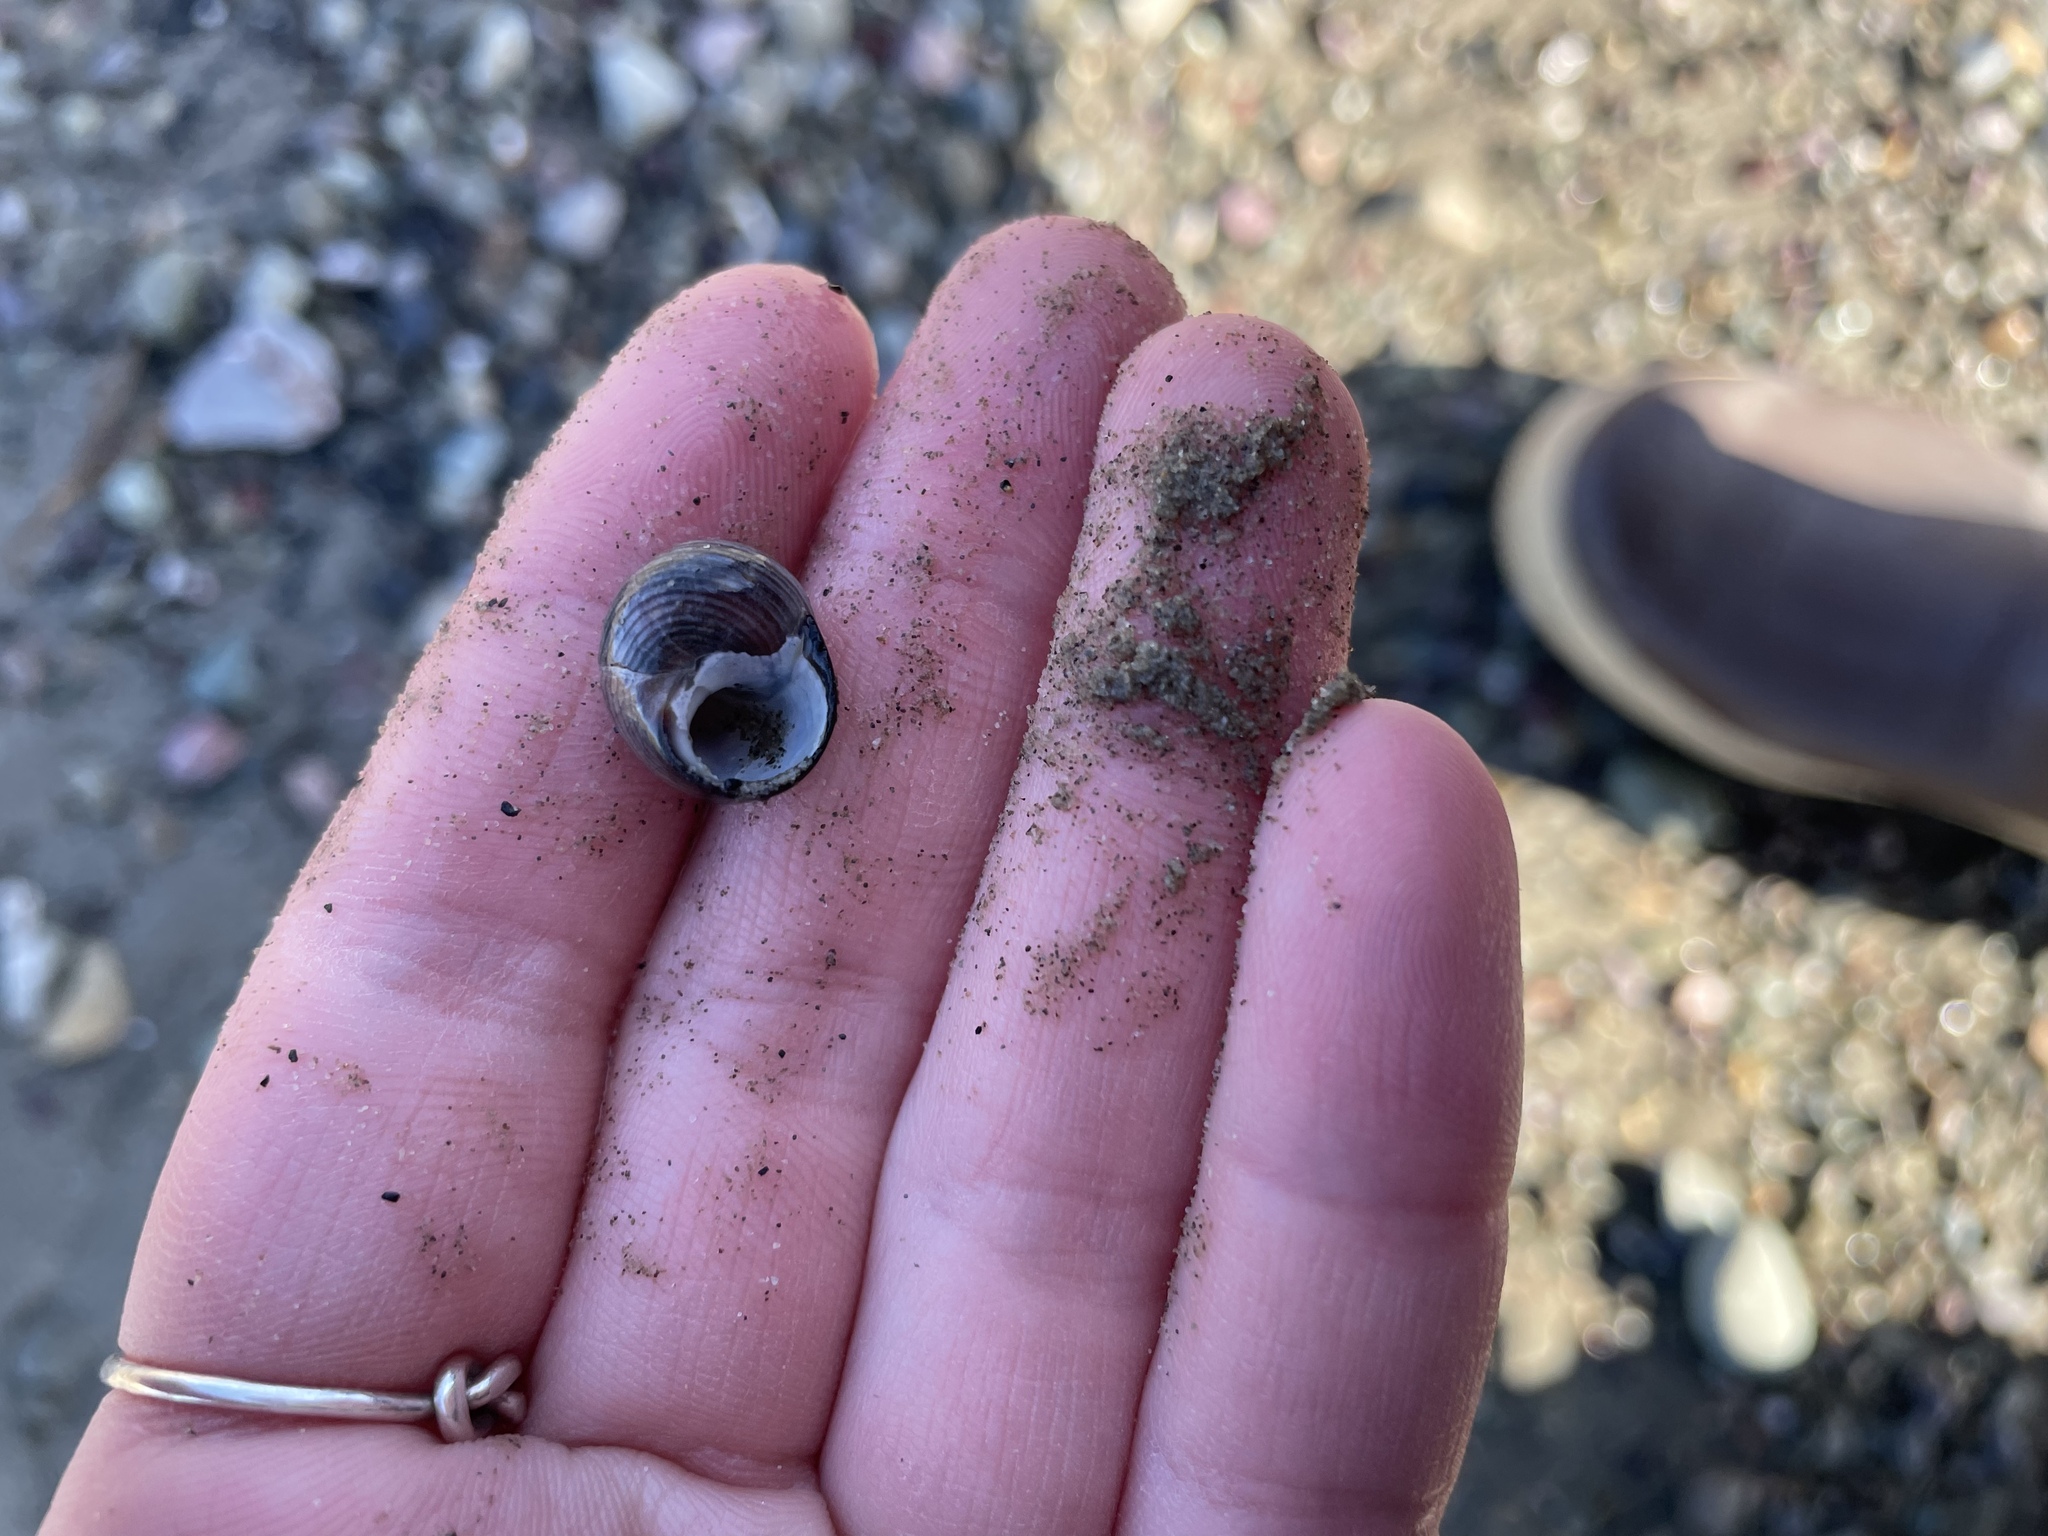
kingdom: Animalia
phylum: Mollusca
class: Gastropoda
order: Littorinimorpha
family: Littorinidae
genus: Littorina
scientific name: Littorina littorea
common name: Common periwinkle
